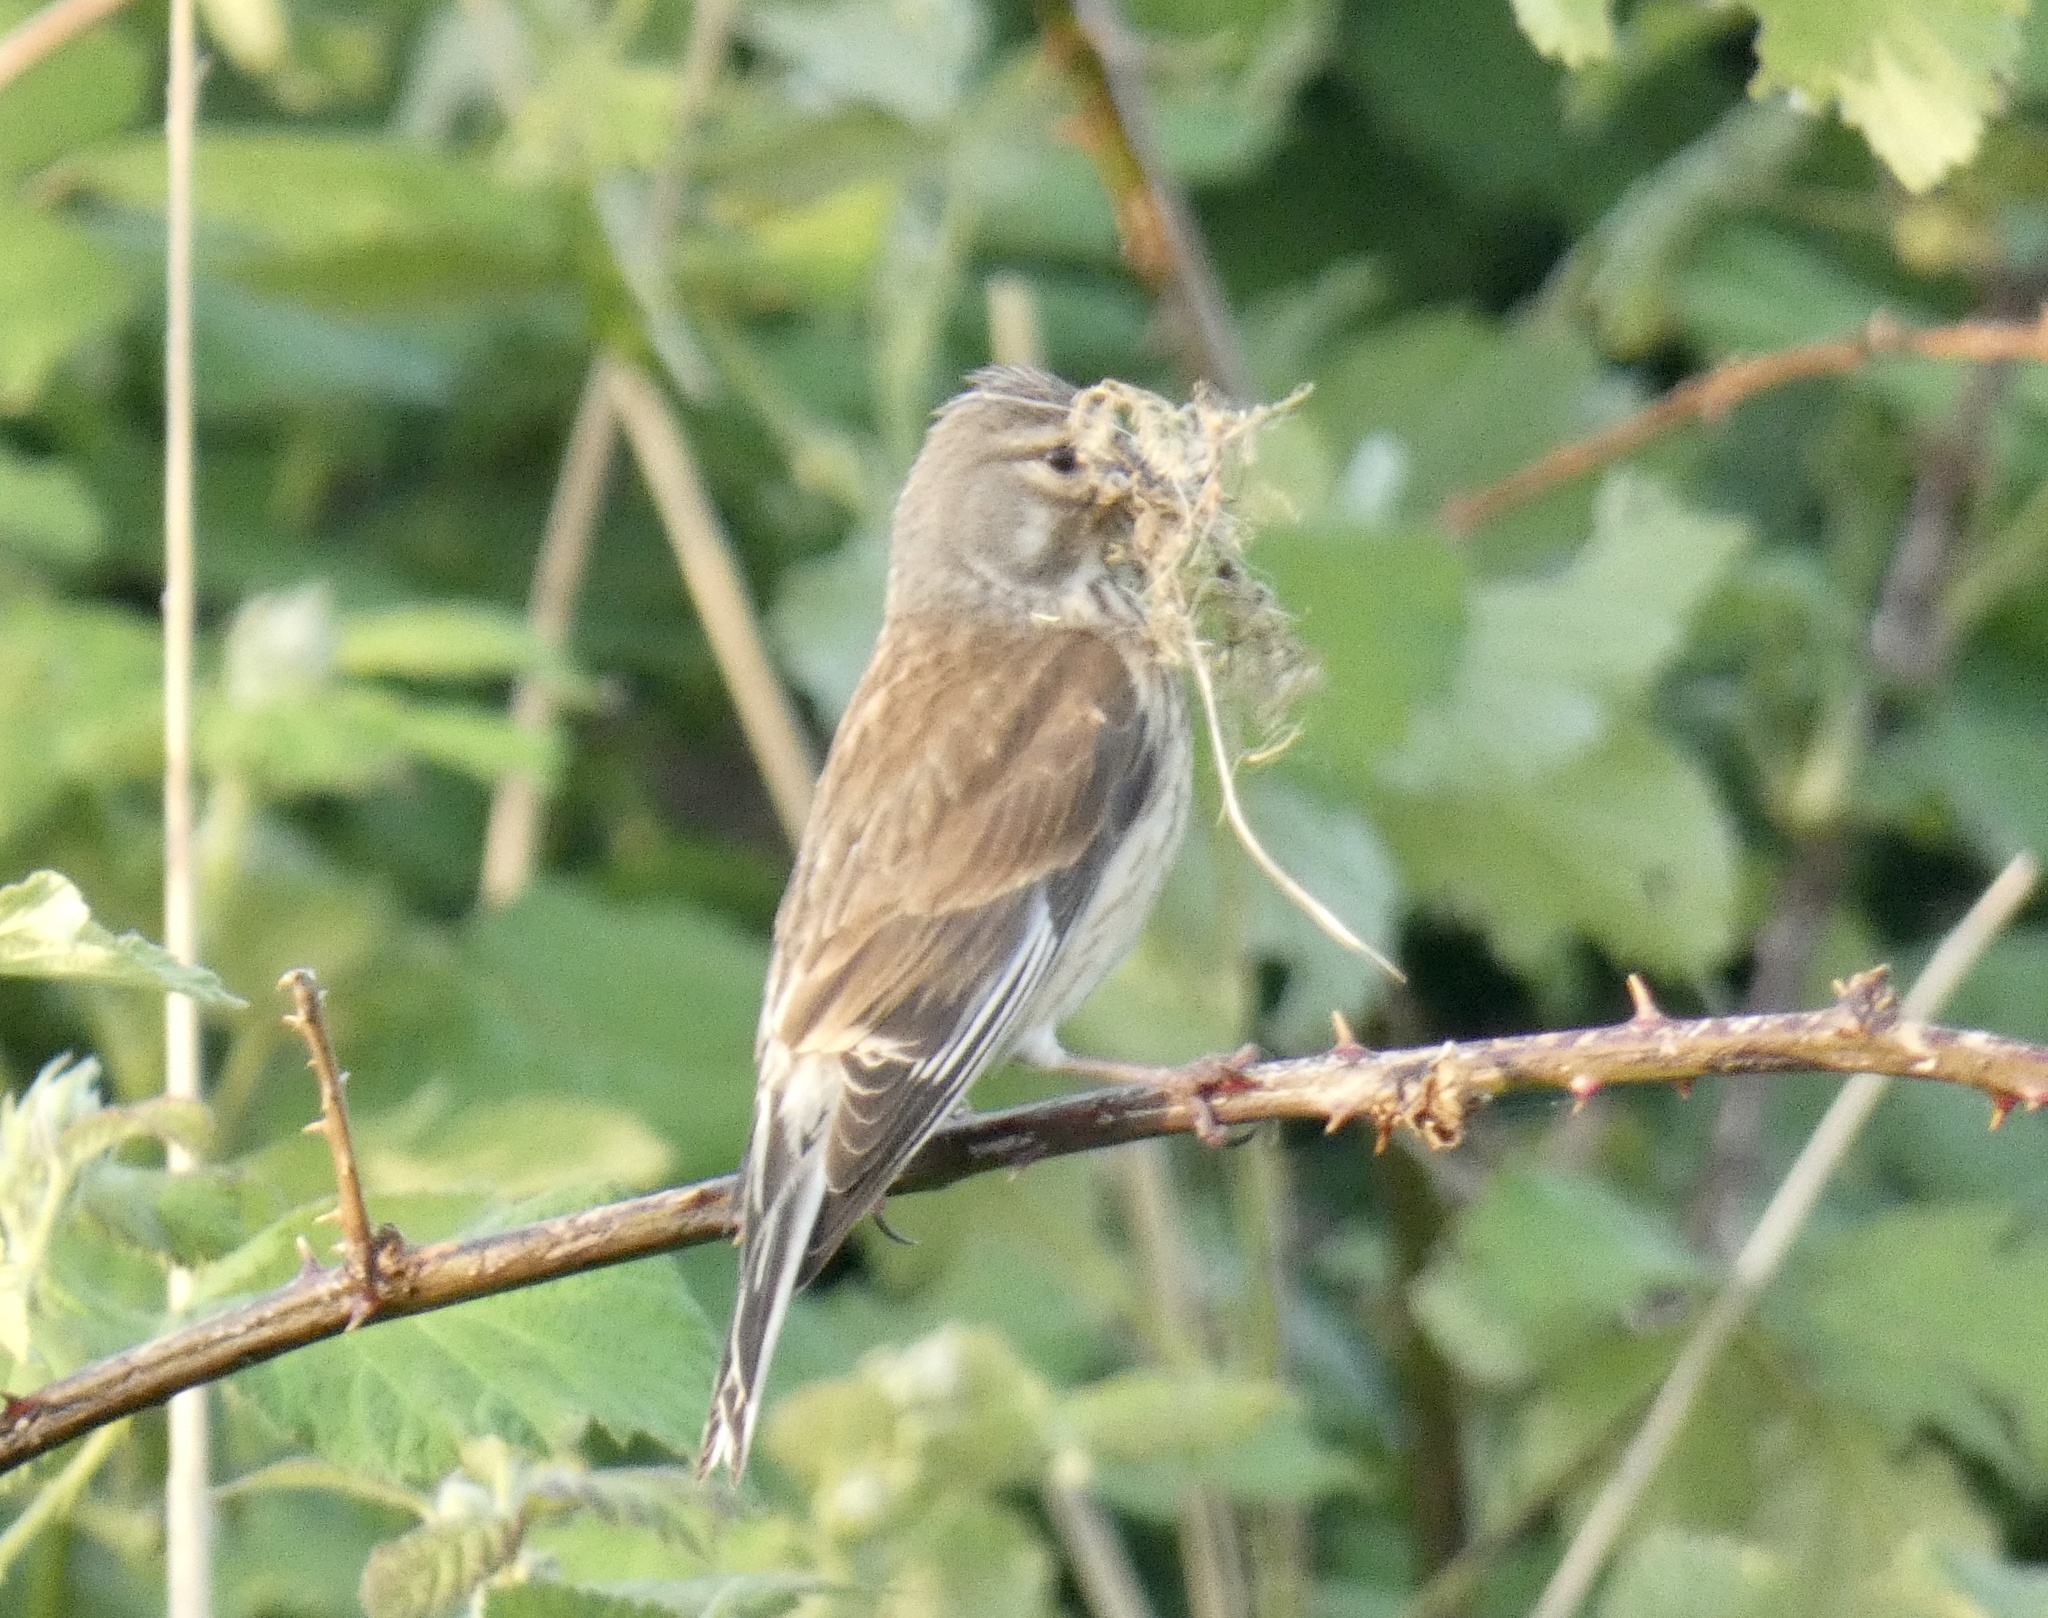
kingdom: Animalia
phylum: Chordata
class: Aves
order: Passeriformes
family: Fringillidae
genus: Linaria
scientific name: Linaria cannabina
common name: Common linnet
